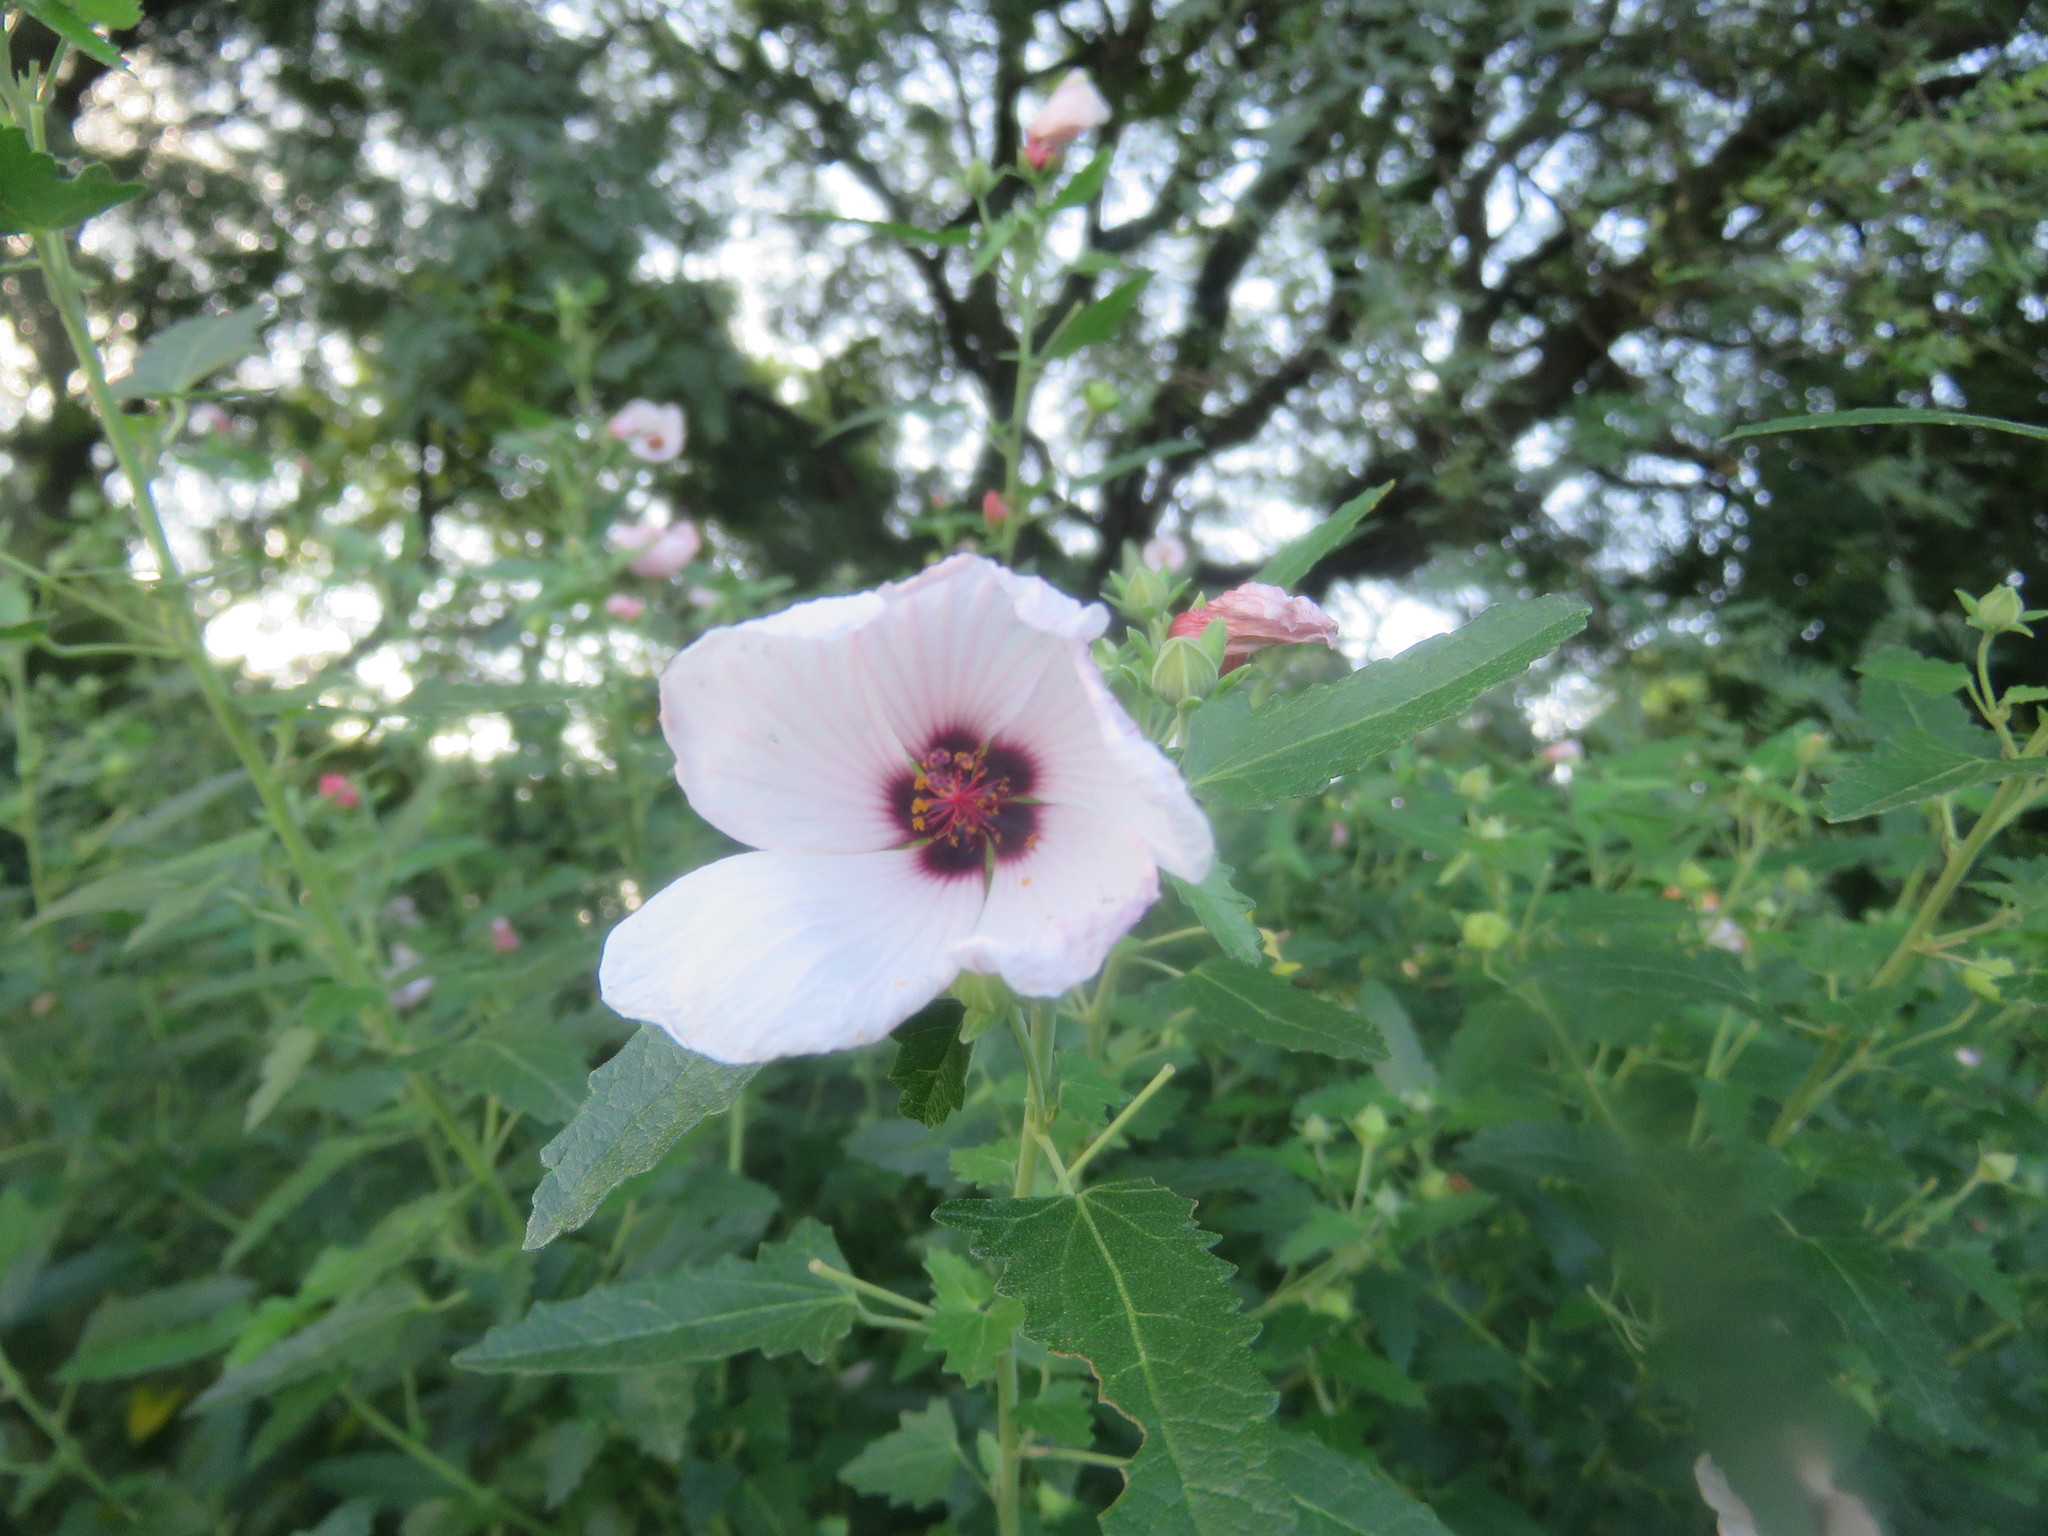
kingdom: Plantae
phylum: Tracheophyta
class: Magnoliopsida
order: Malvales
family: Malvaceae
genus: Pavonia
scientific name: Pavonia hastata
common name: Spearleaf swampmallow
